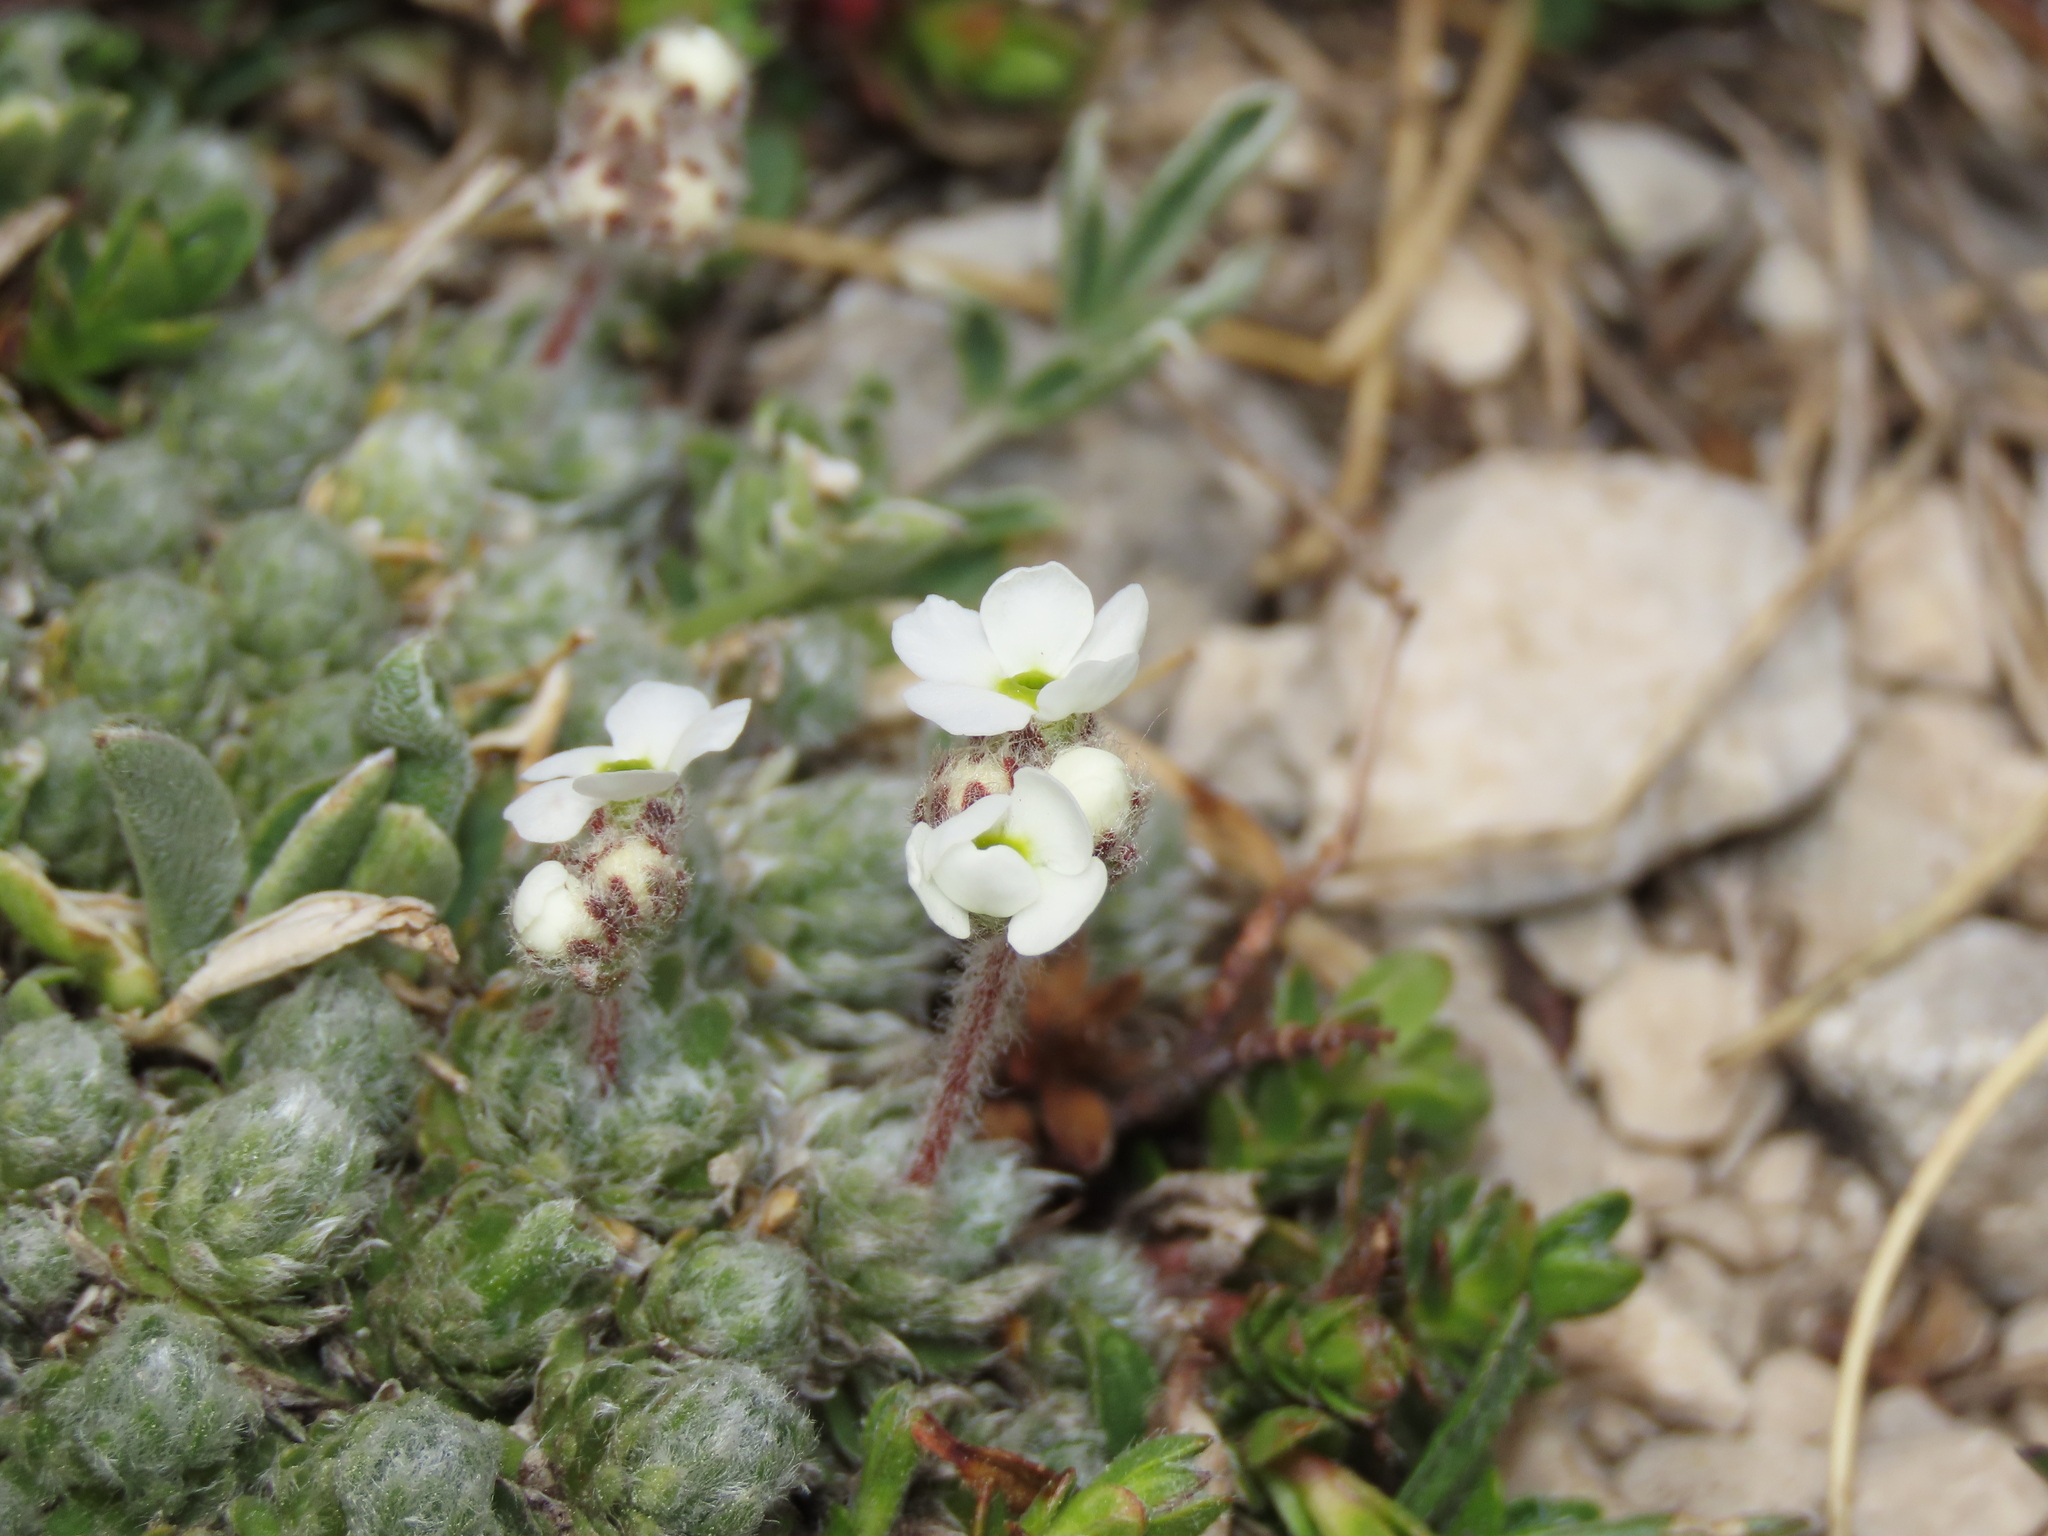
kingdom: Plantae
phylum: Tracheophyta
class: Magnoliopsida
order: Ericales
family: Primulaceae
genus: Androsace
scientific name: Androsace villosa
